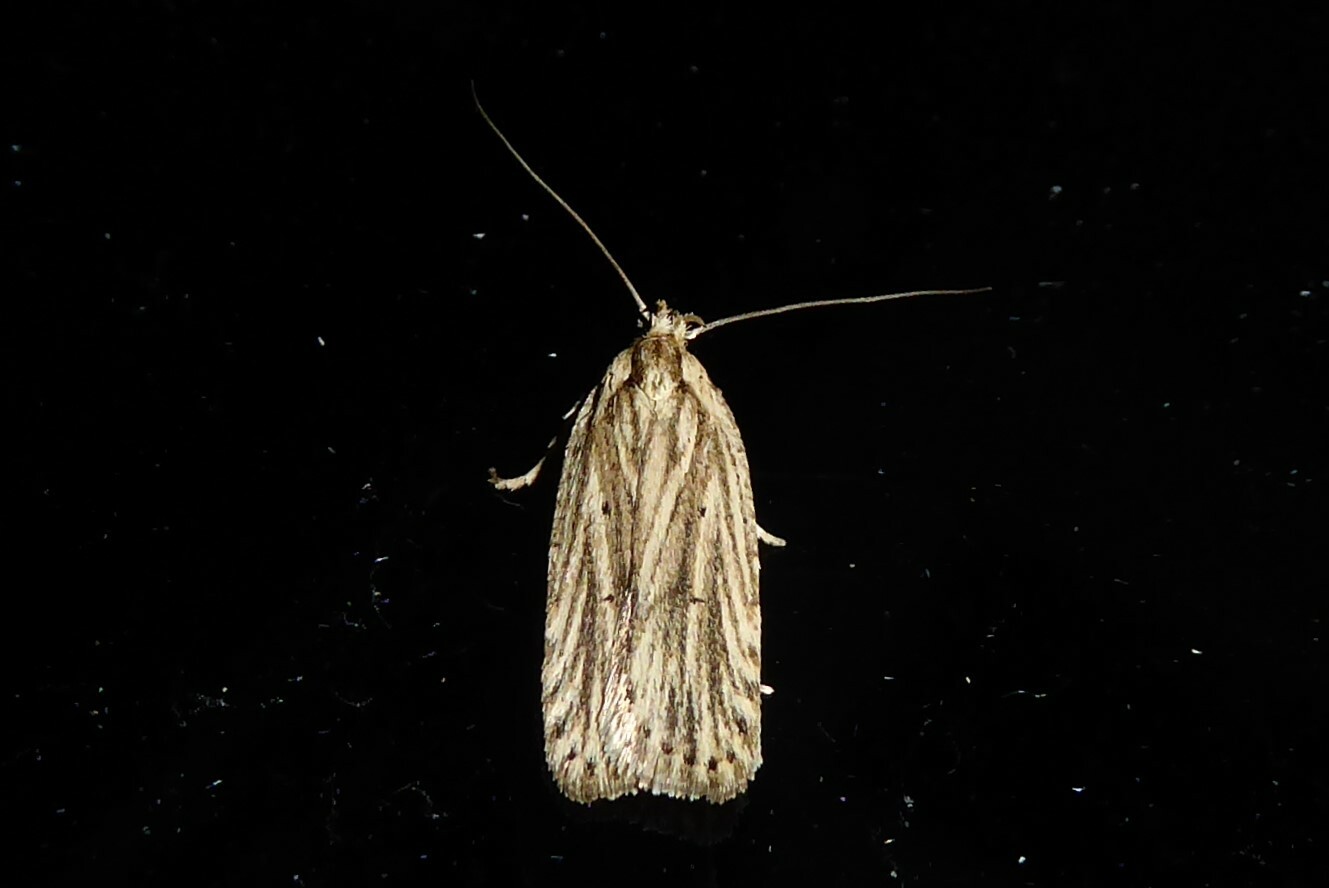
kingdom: Animalia
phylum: Arthropoda
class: Insecta
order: Lepidoptera
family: Depressariidae
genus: Agonopterix
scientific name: Agonopterix
